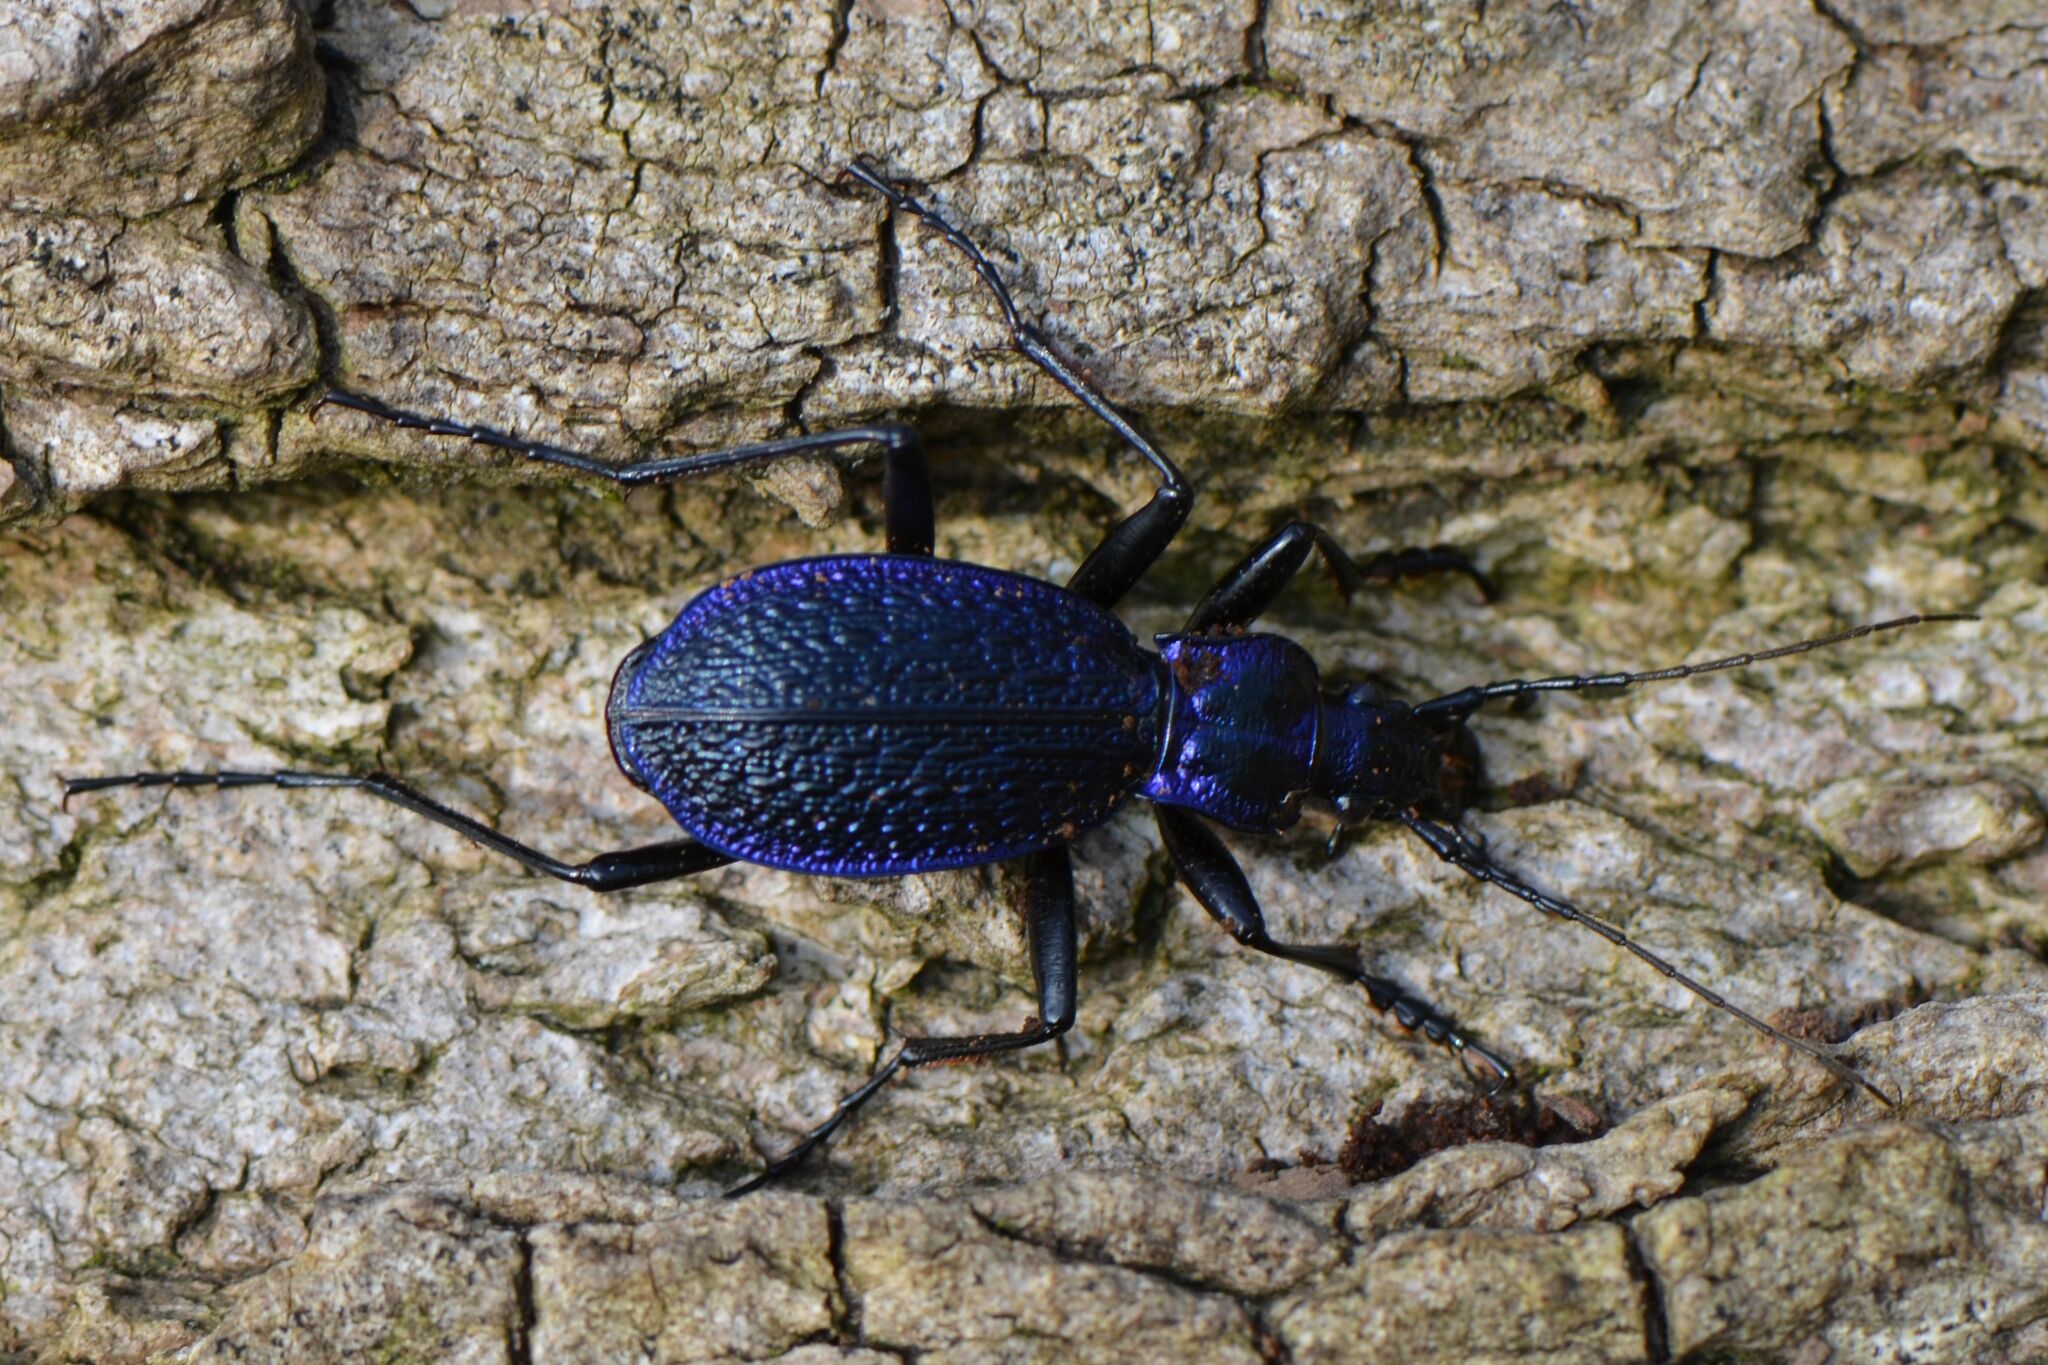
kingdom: Animalia
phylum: Arthropoda
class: Insecta
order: Coleoptera
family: Carabidae
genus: Carabus
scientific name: Carabus intricatus
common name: Blue ground beetle
